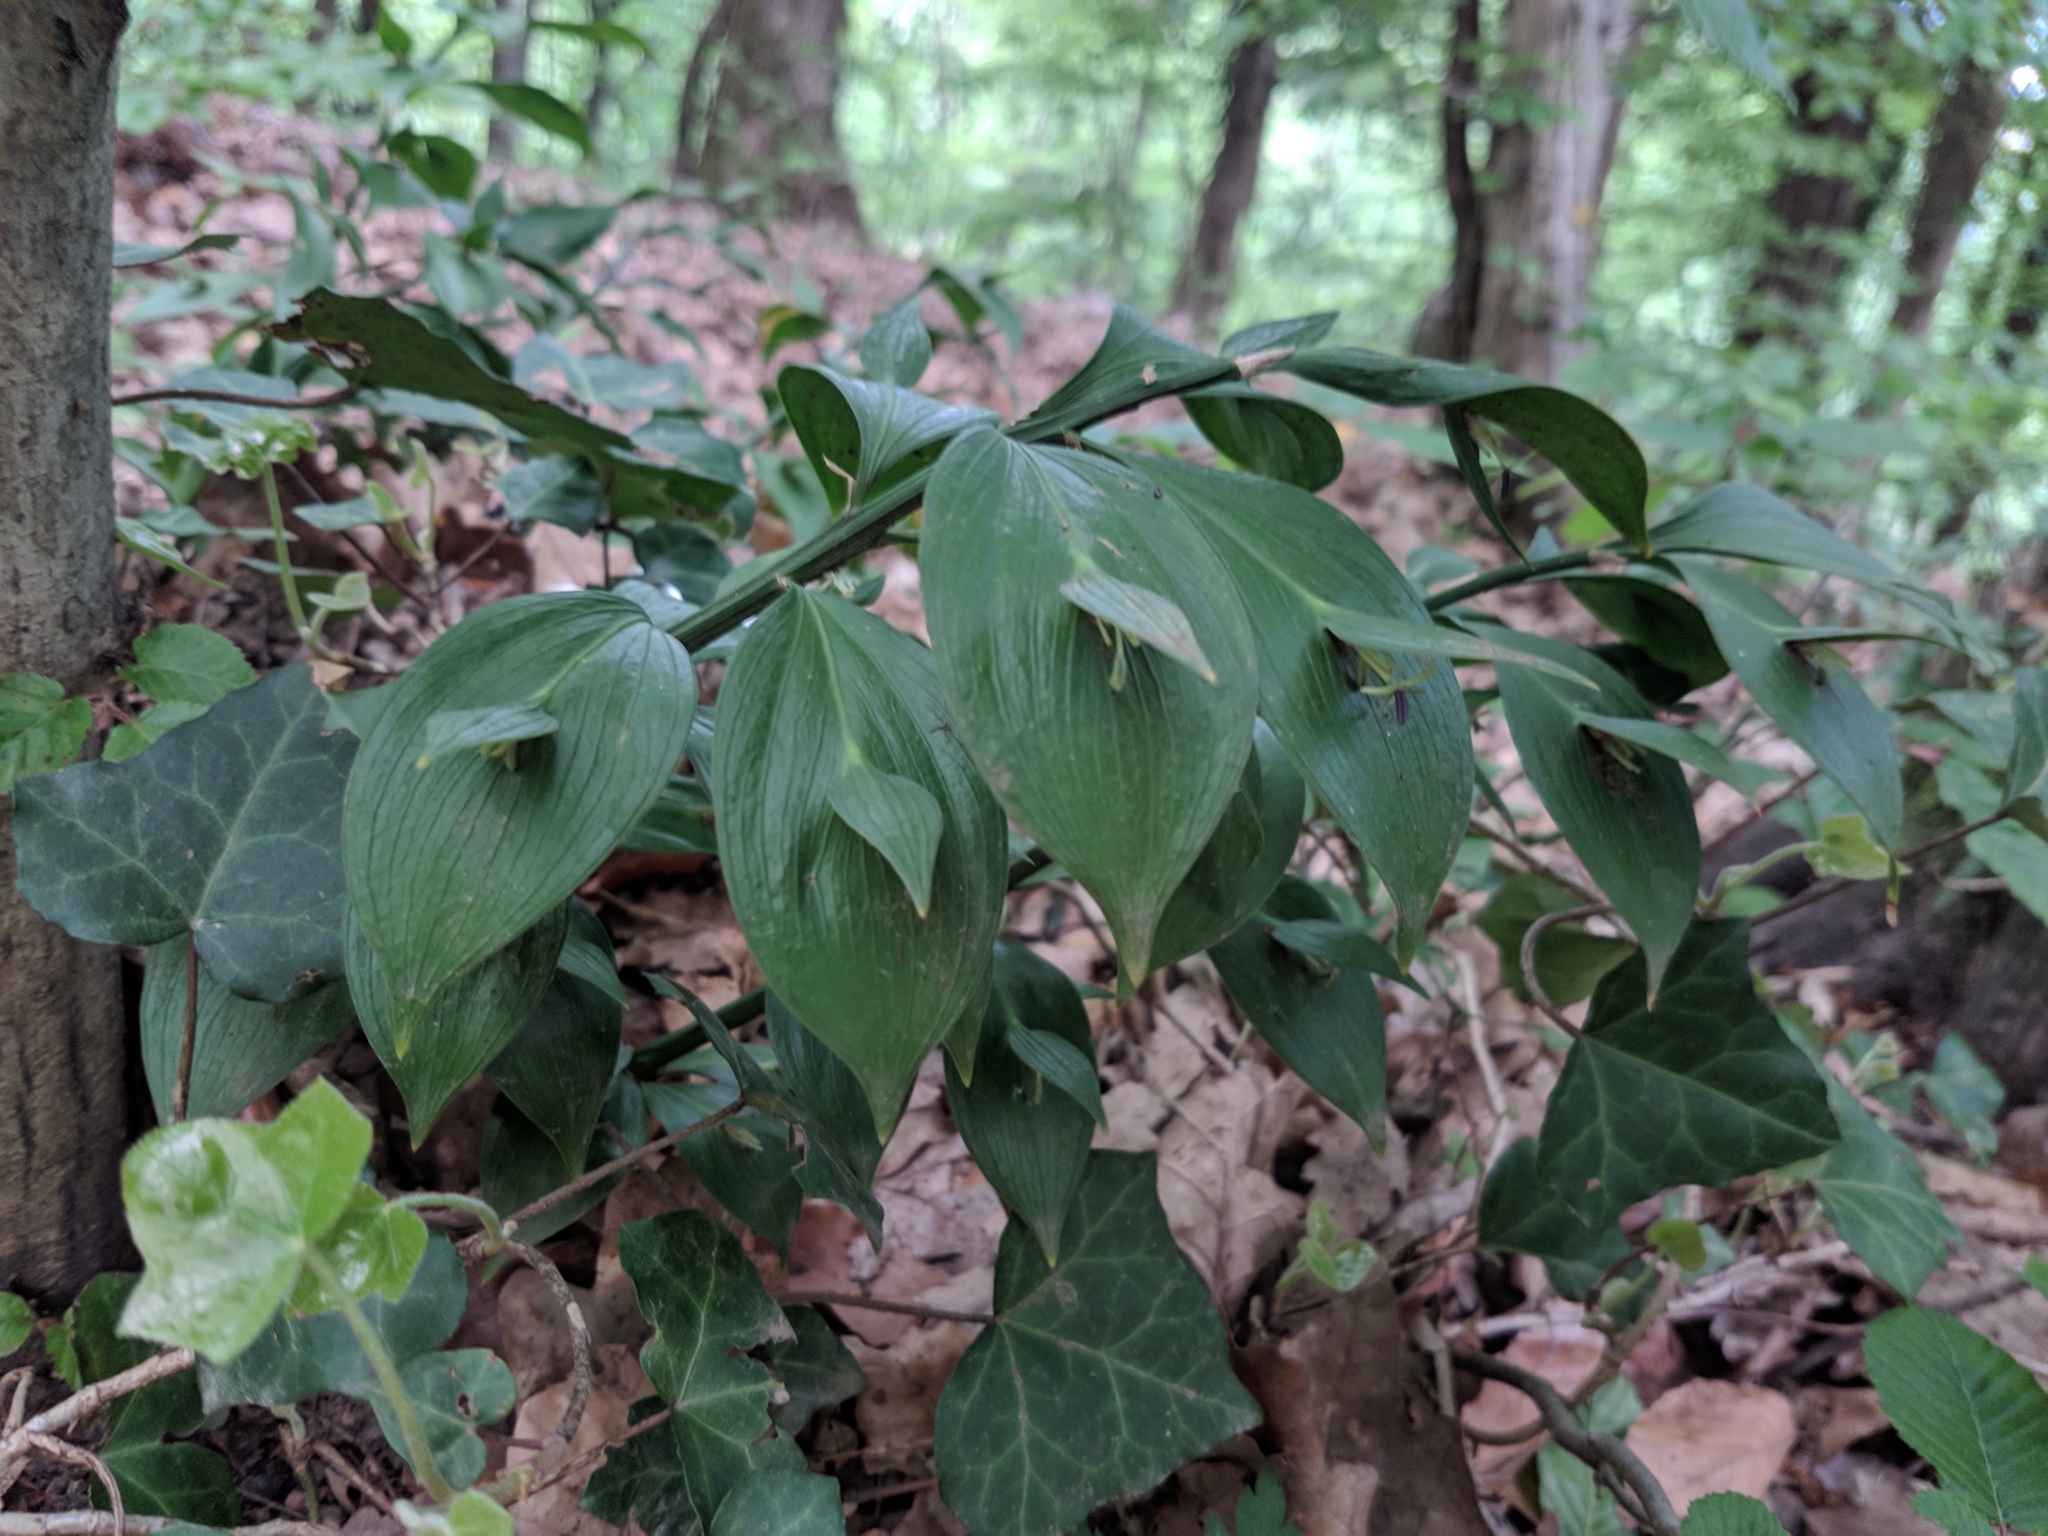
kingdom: Plantae
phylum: Tracheophyta
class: Liliopsida
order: Asparagales
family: Asparagaceae
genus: Ruscus
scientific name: Ruscus hypoglossum
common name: Spineless butcher's-broom
